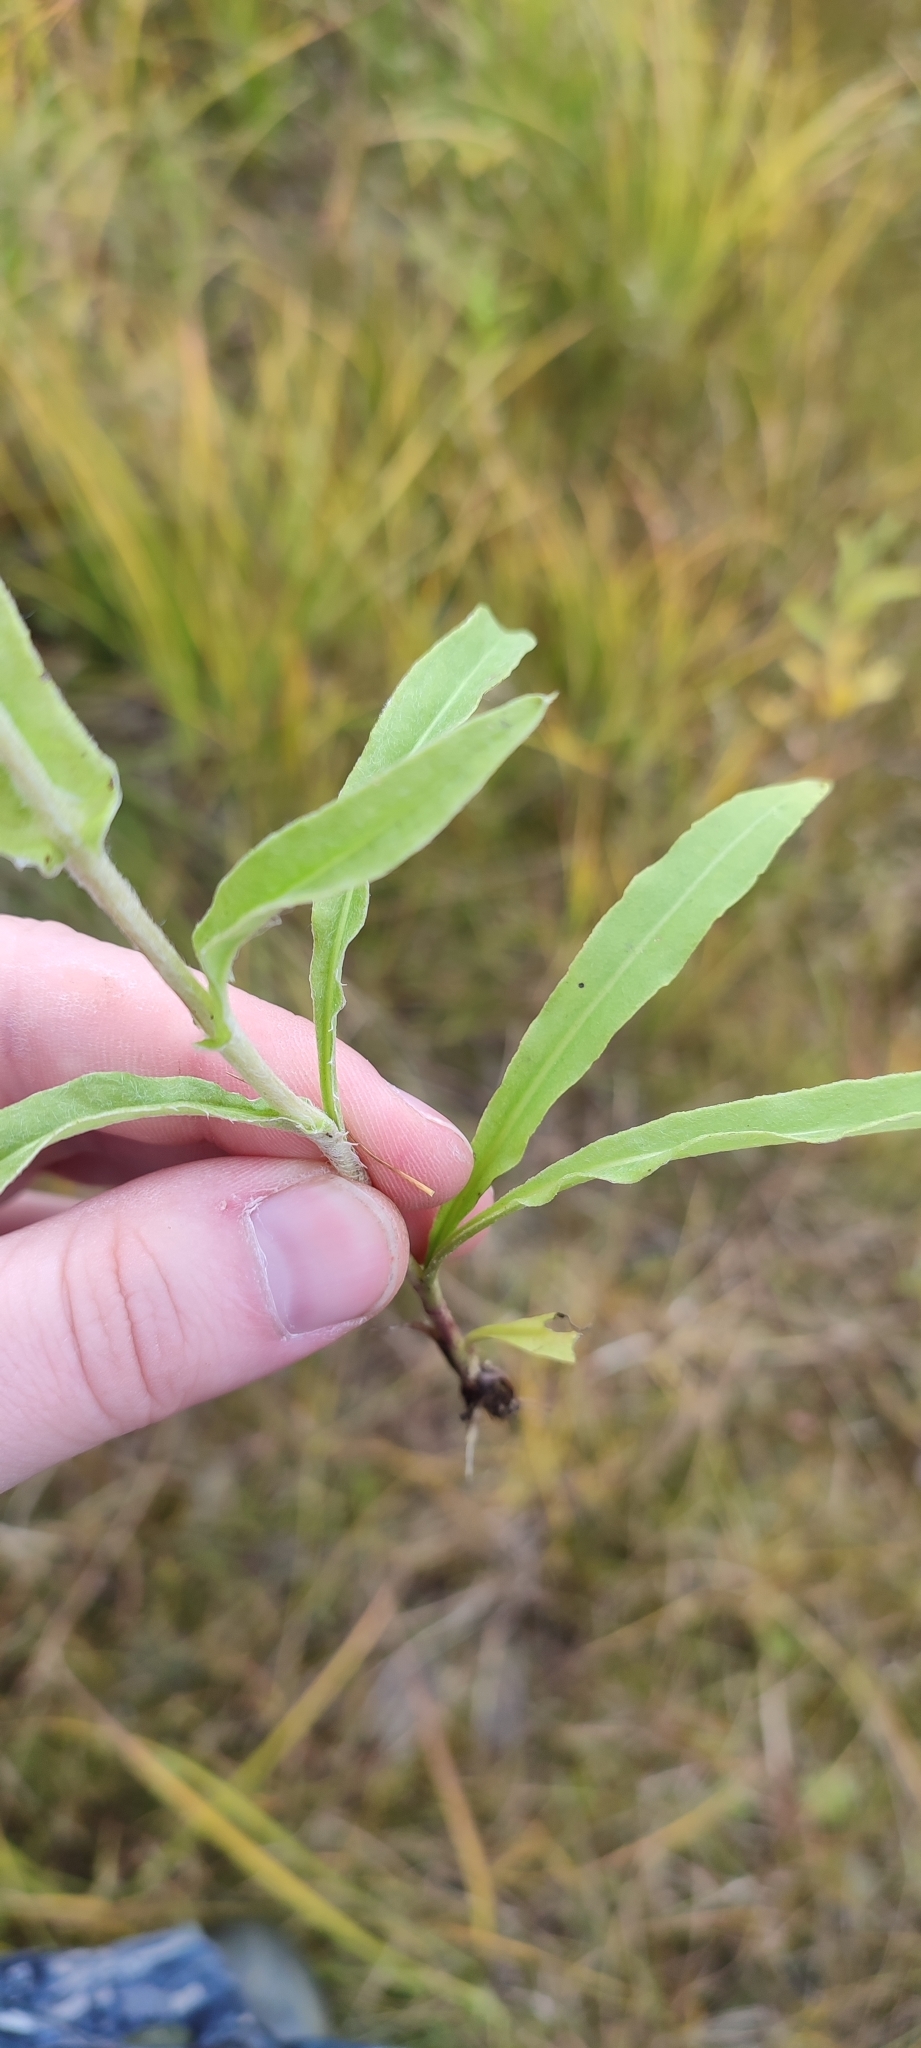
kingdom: Plantae
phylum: Tracheophyta
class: Magnoliopsida
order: Asterales
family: Asteraceae
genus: Pentanema
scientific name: Pentanema britannicum
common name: British elecampane
